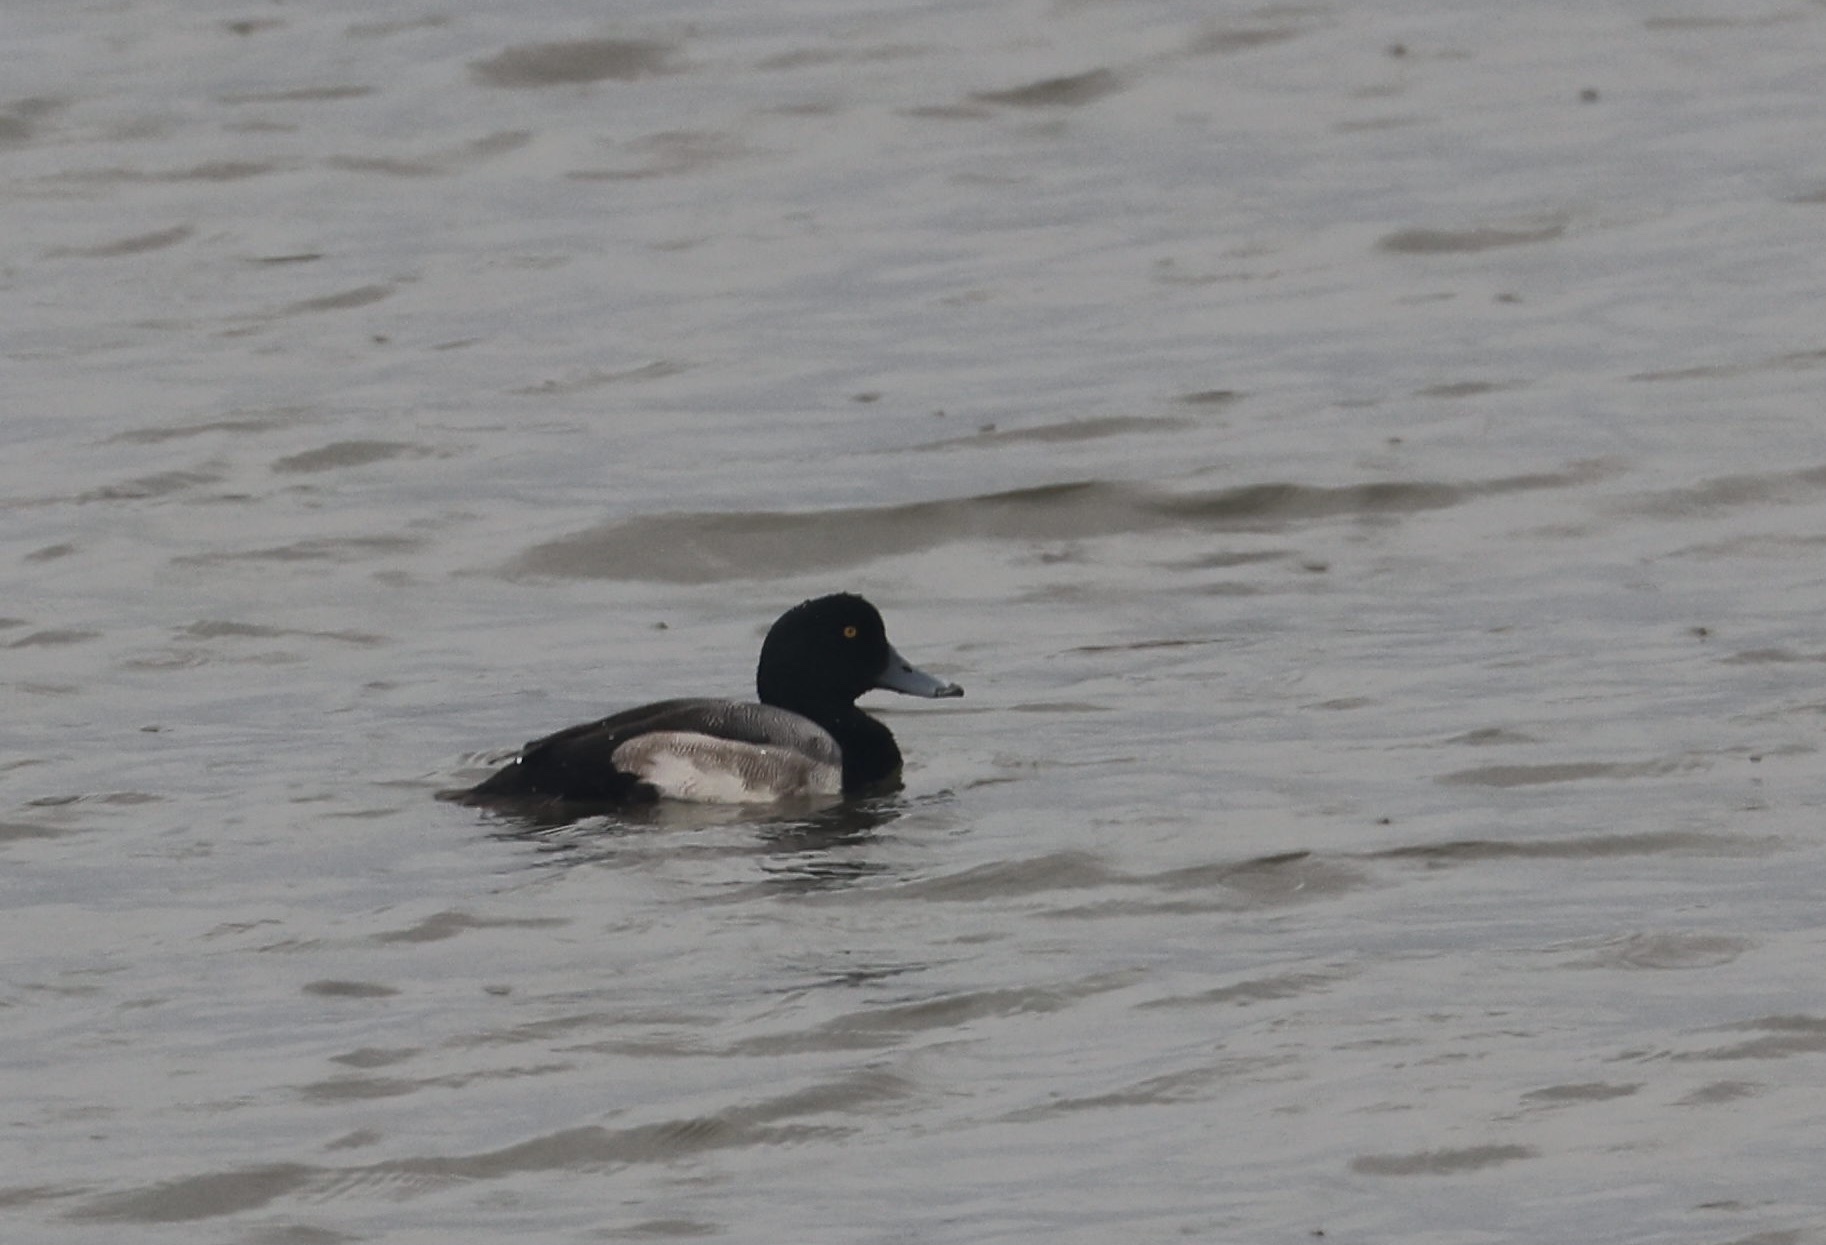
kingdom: Animalia
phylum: Chordata
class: Aves
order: Anseriformes
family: Anatidae
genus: Aythya
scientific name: Aythya marila
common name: Greater scaup
